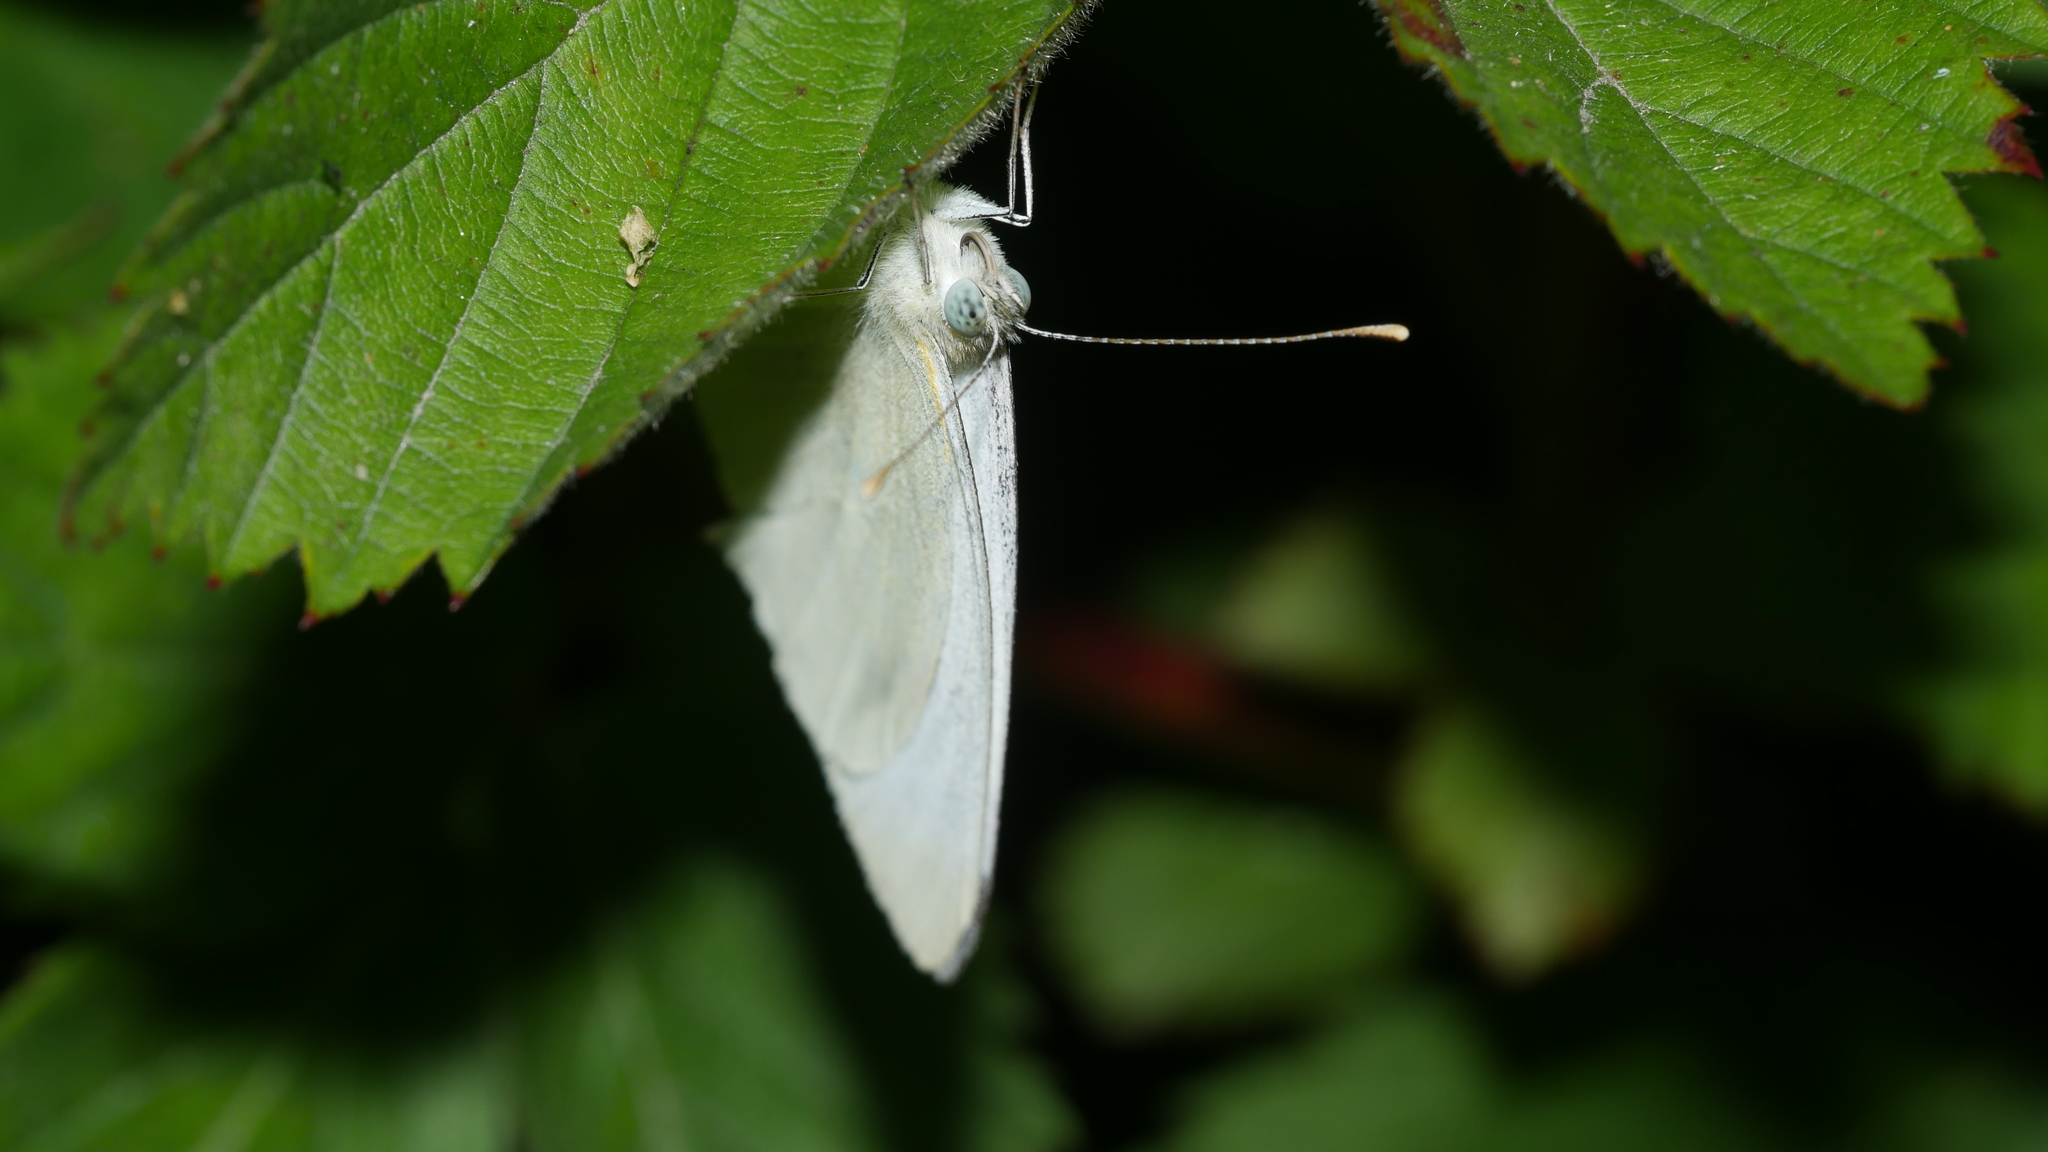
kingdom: Animalia
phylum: Arthropoda
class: Insecta
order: Lepidoptera
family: Pieridae
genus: Pieris
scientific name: Pieris rapae
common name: Small white
